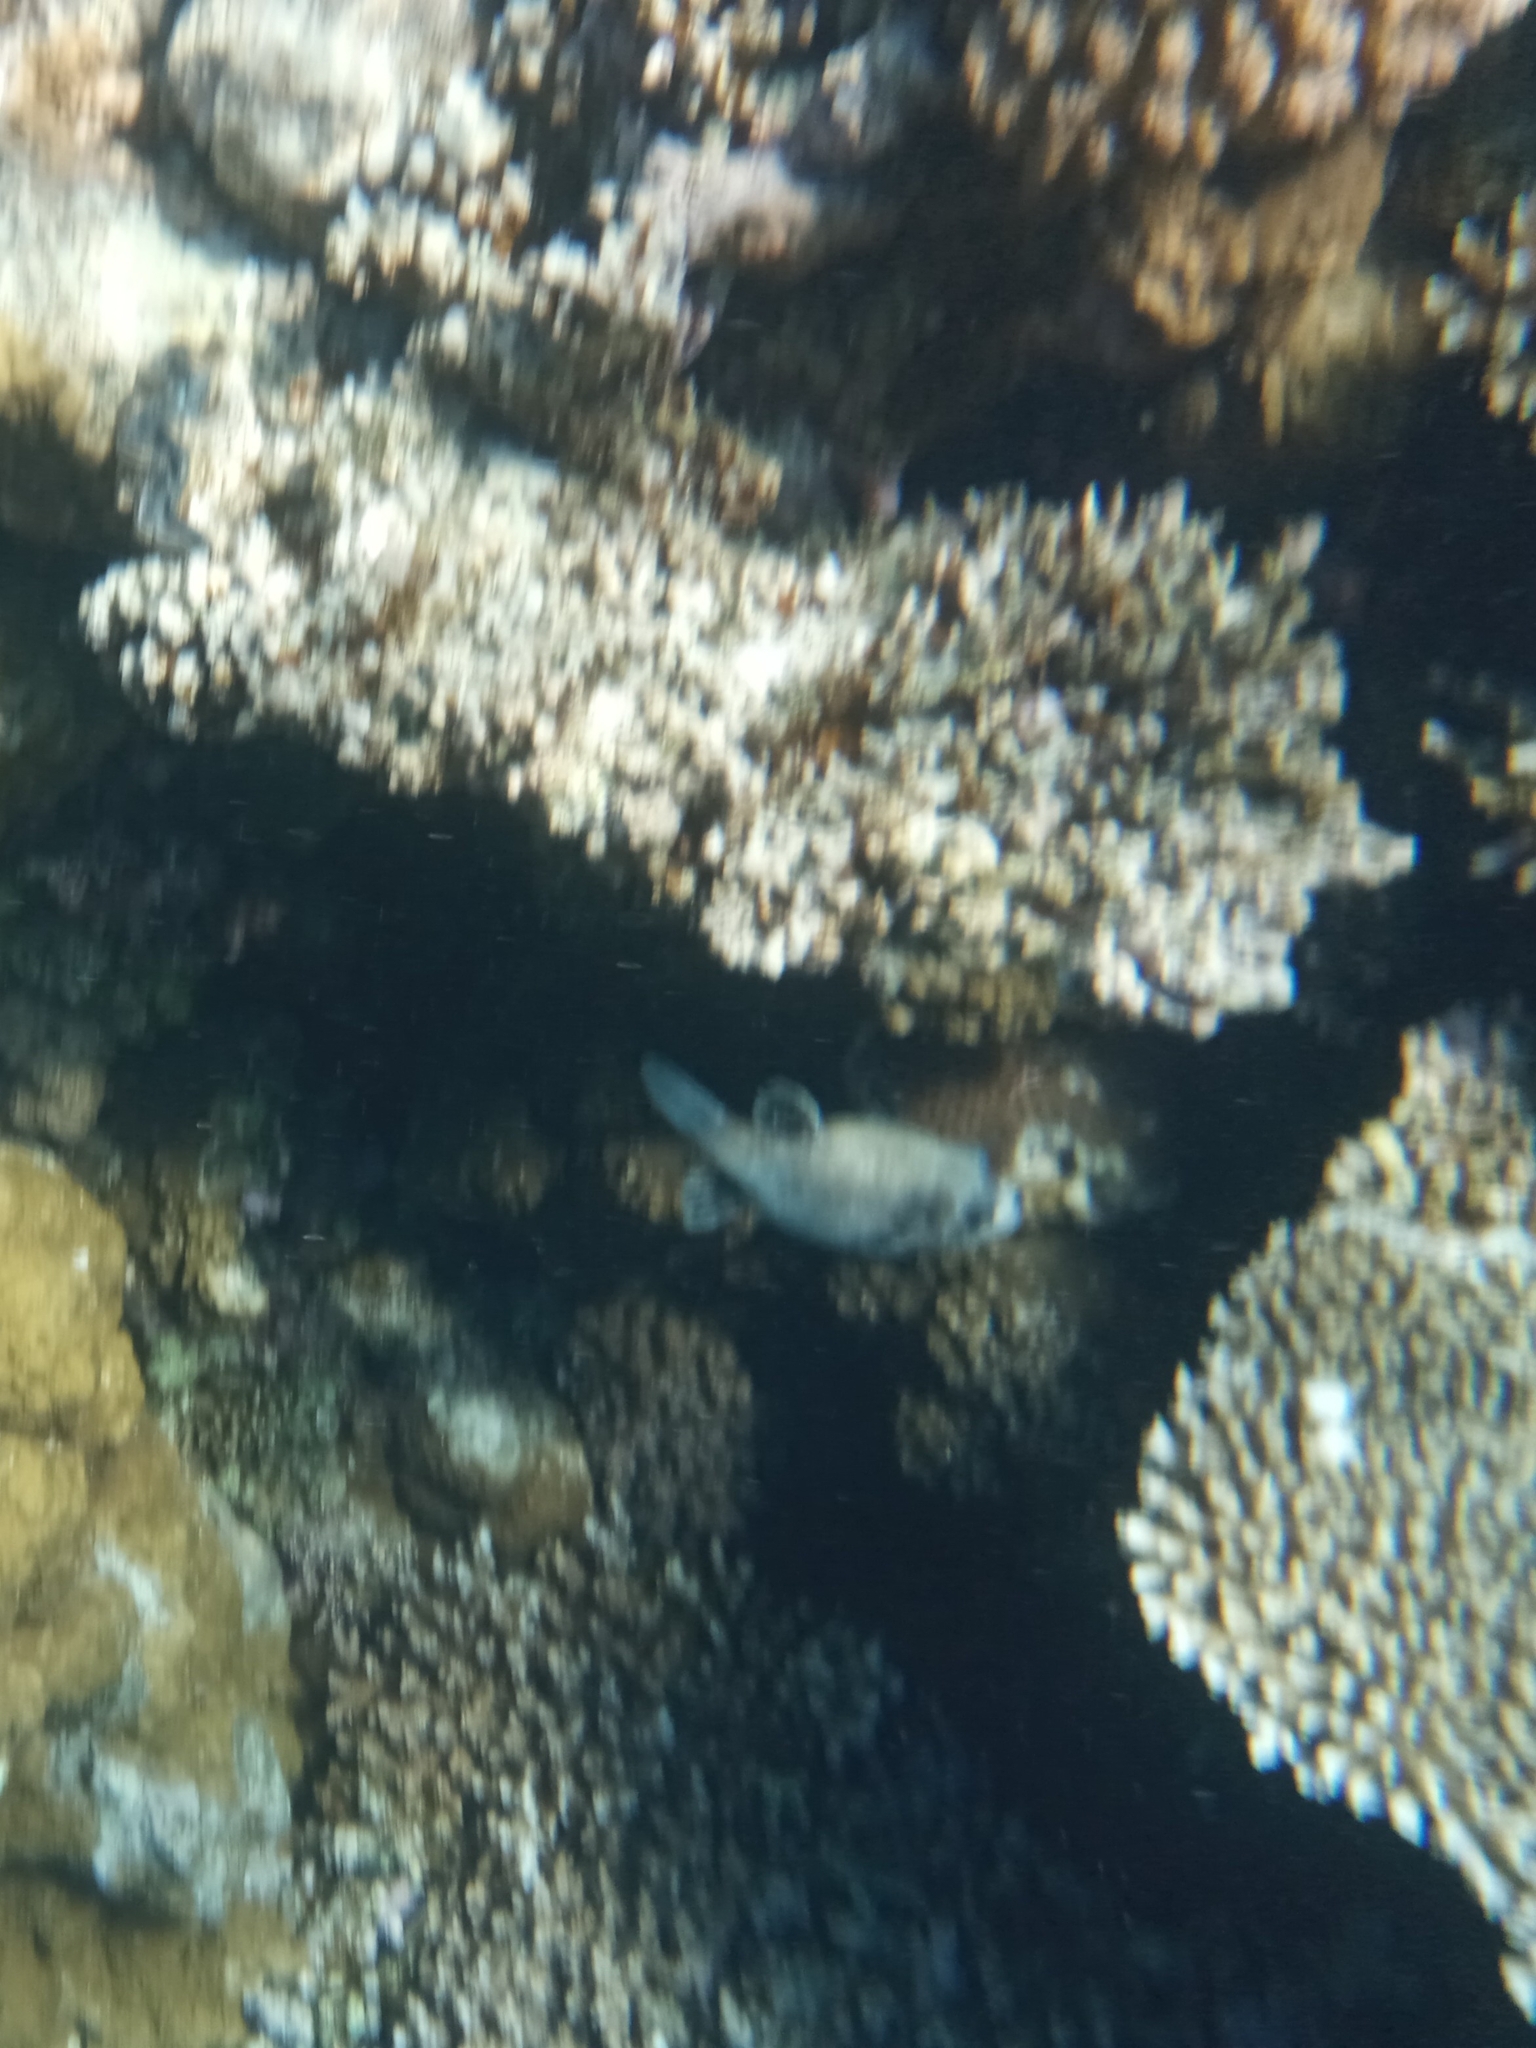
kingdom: Animalia
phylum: Chordata
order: Tetraodontiformes
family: Tetraodontidae
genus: Arothron
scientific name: Arothron diadematus
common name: Masked puffer
